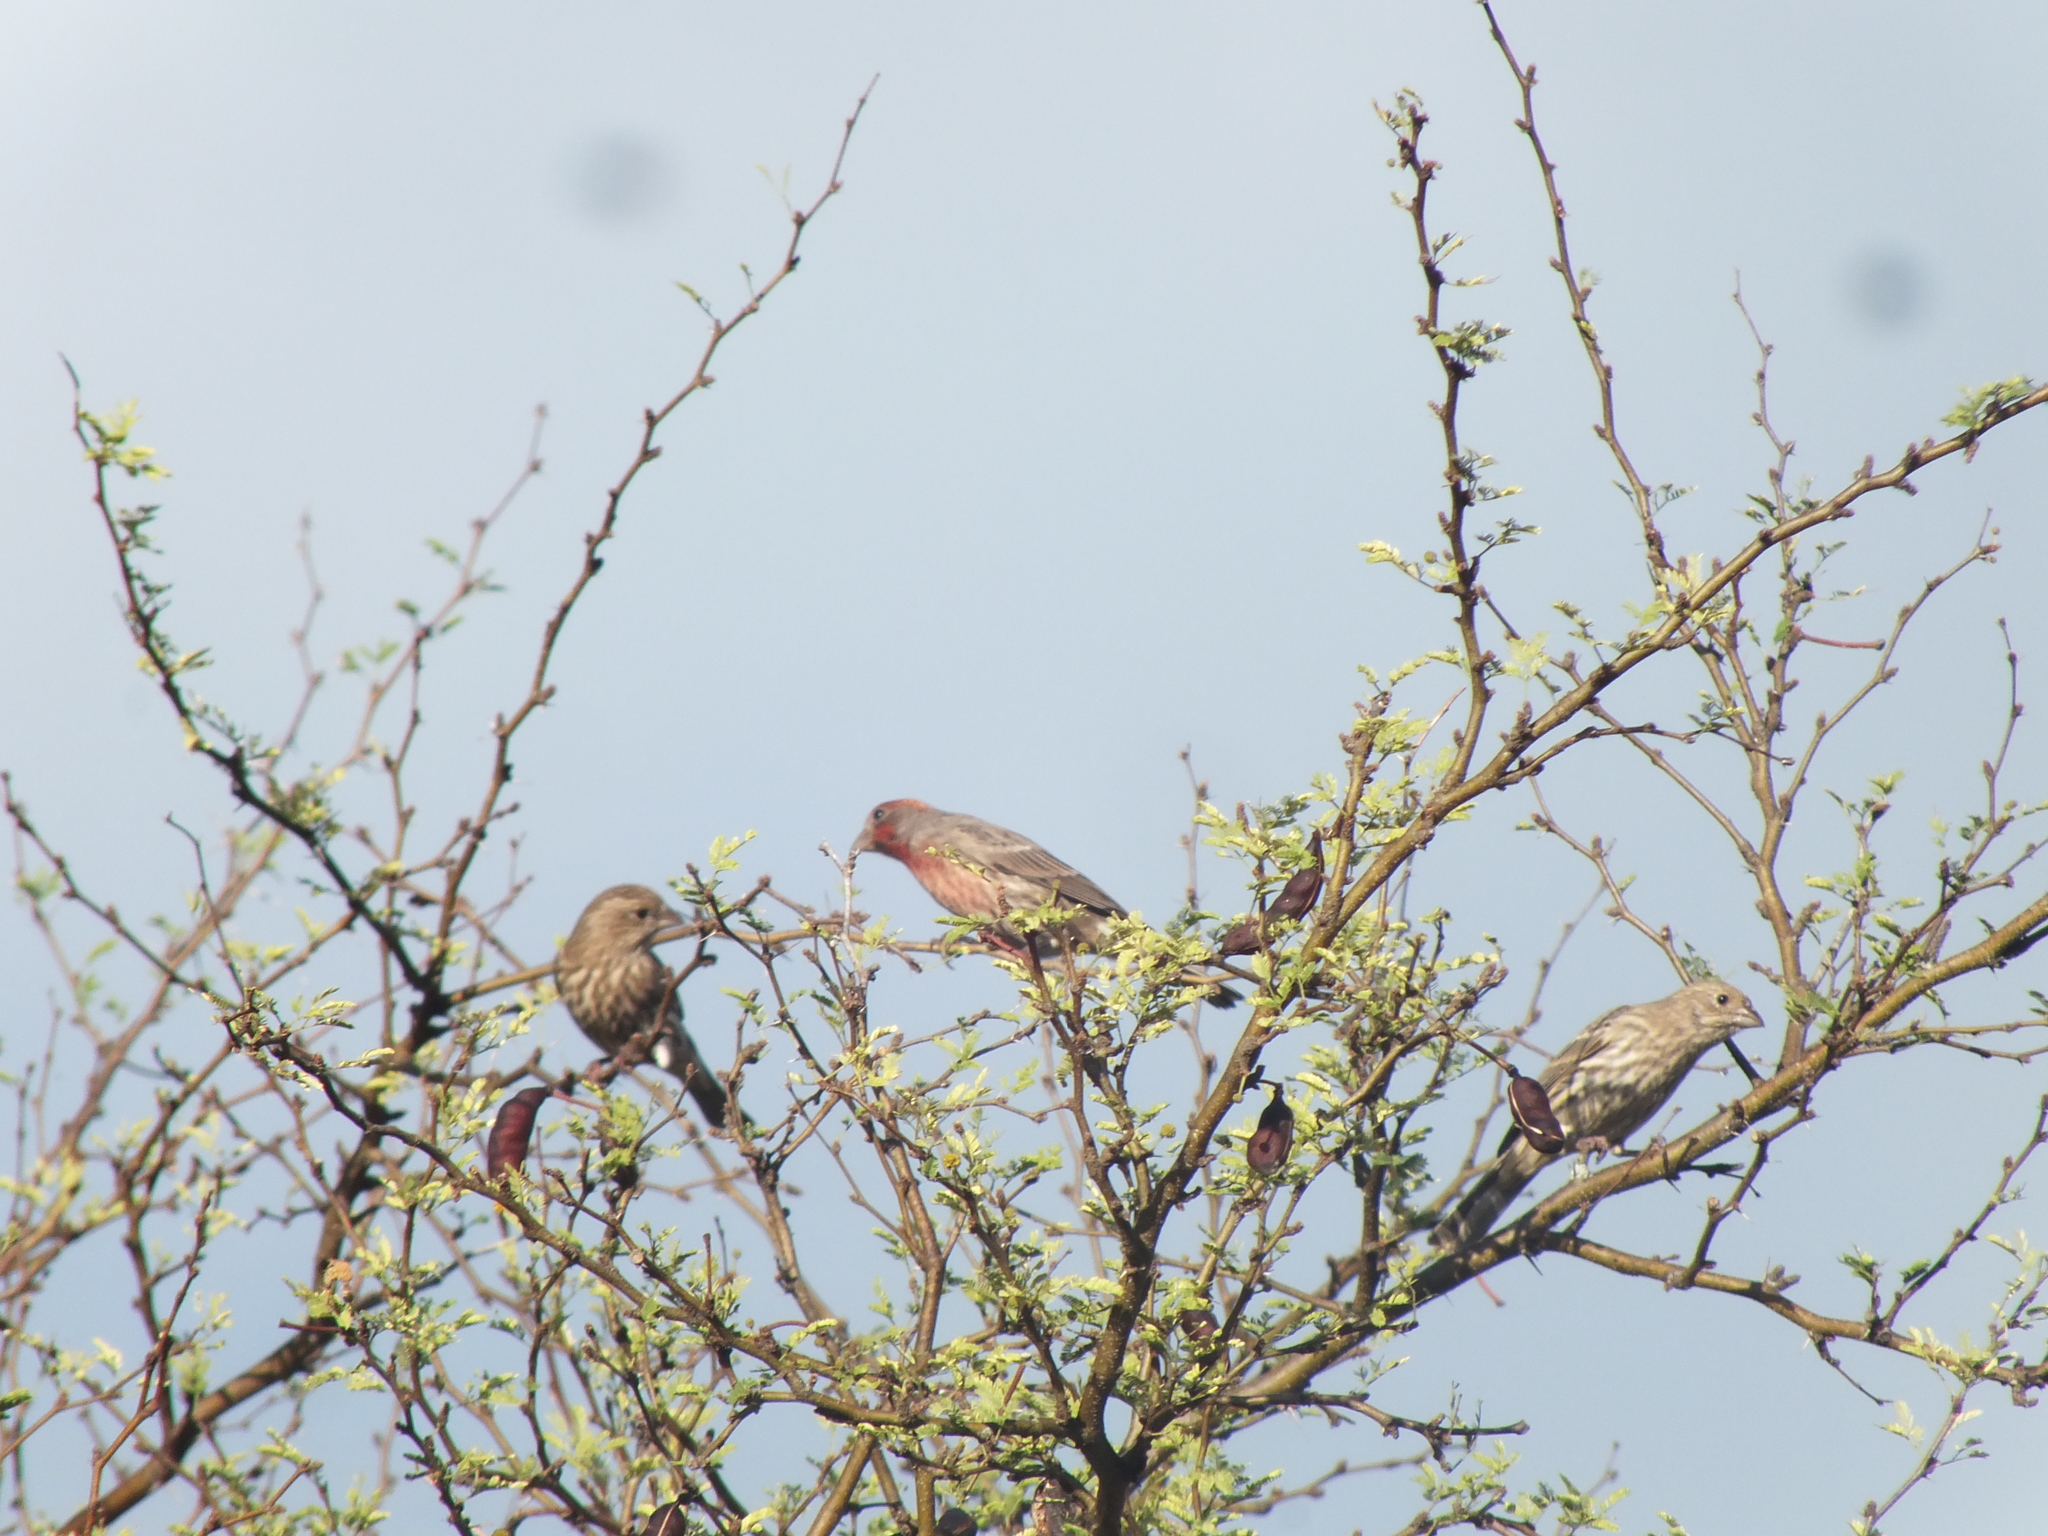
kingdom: Animalia
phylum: Chordata
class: Aves
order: Passeriformes
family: Fringillidae
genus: Haemorhous
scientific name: Haemorhous mexicanus
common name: House finch
